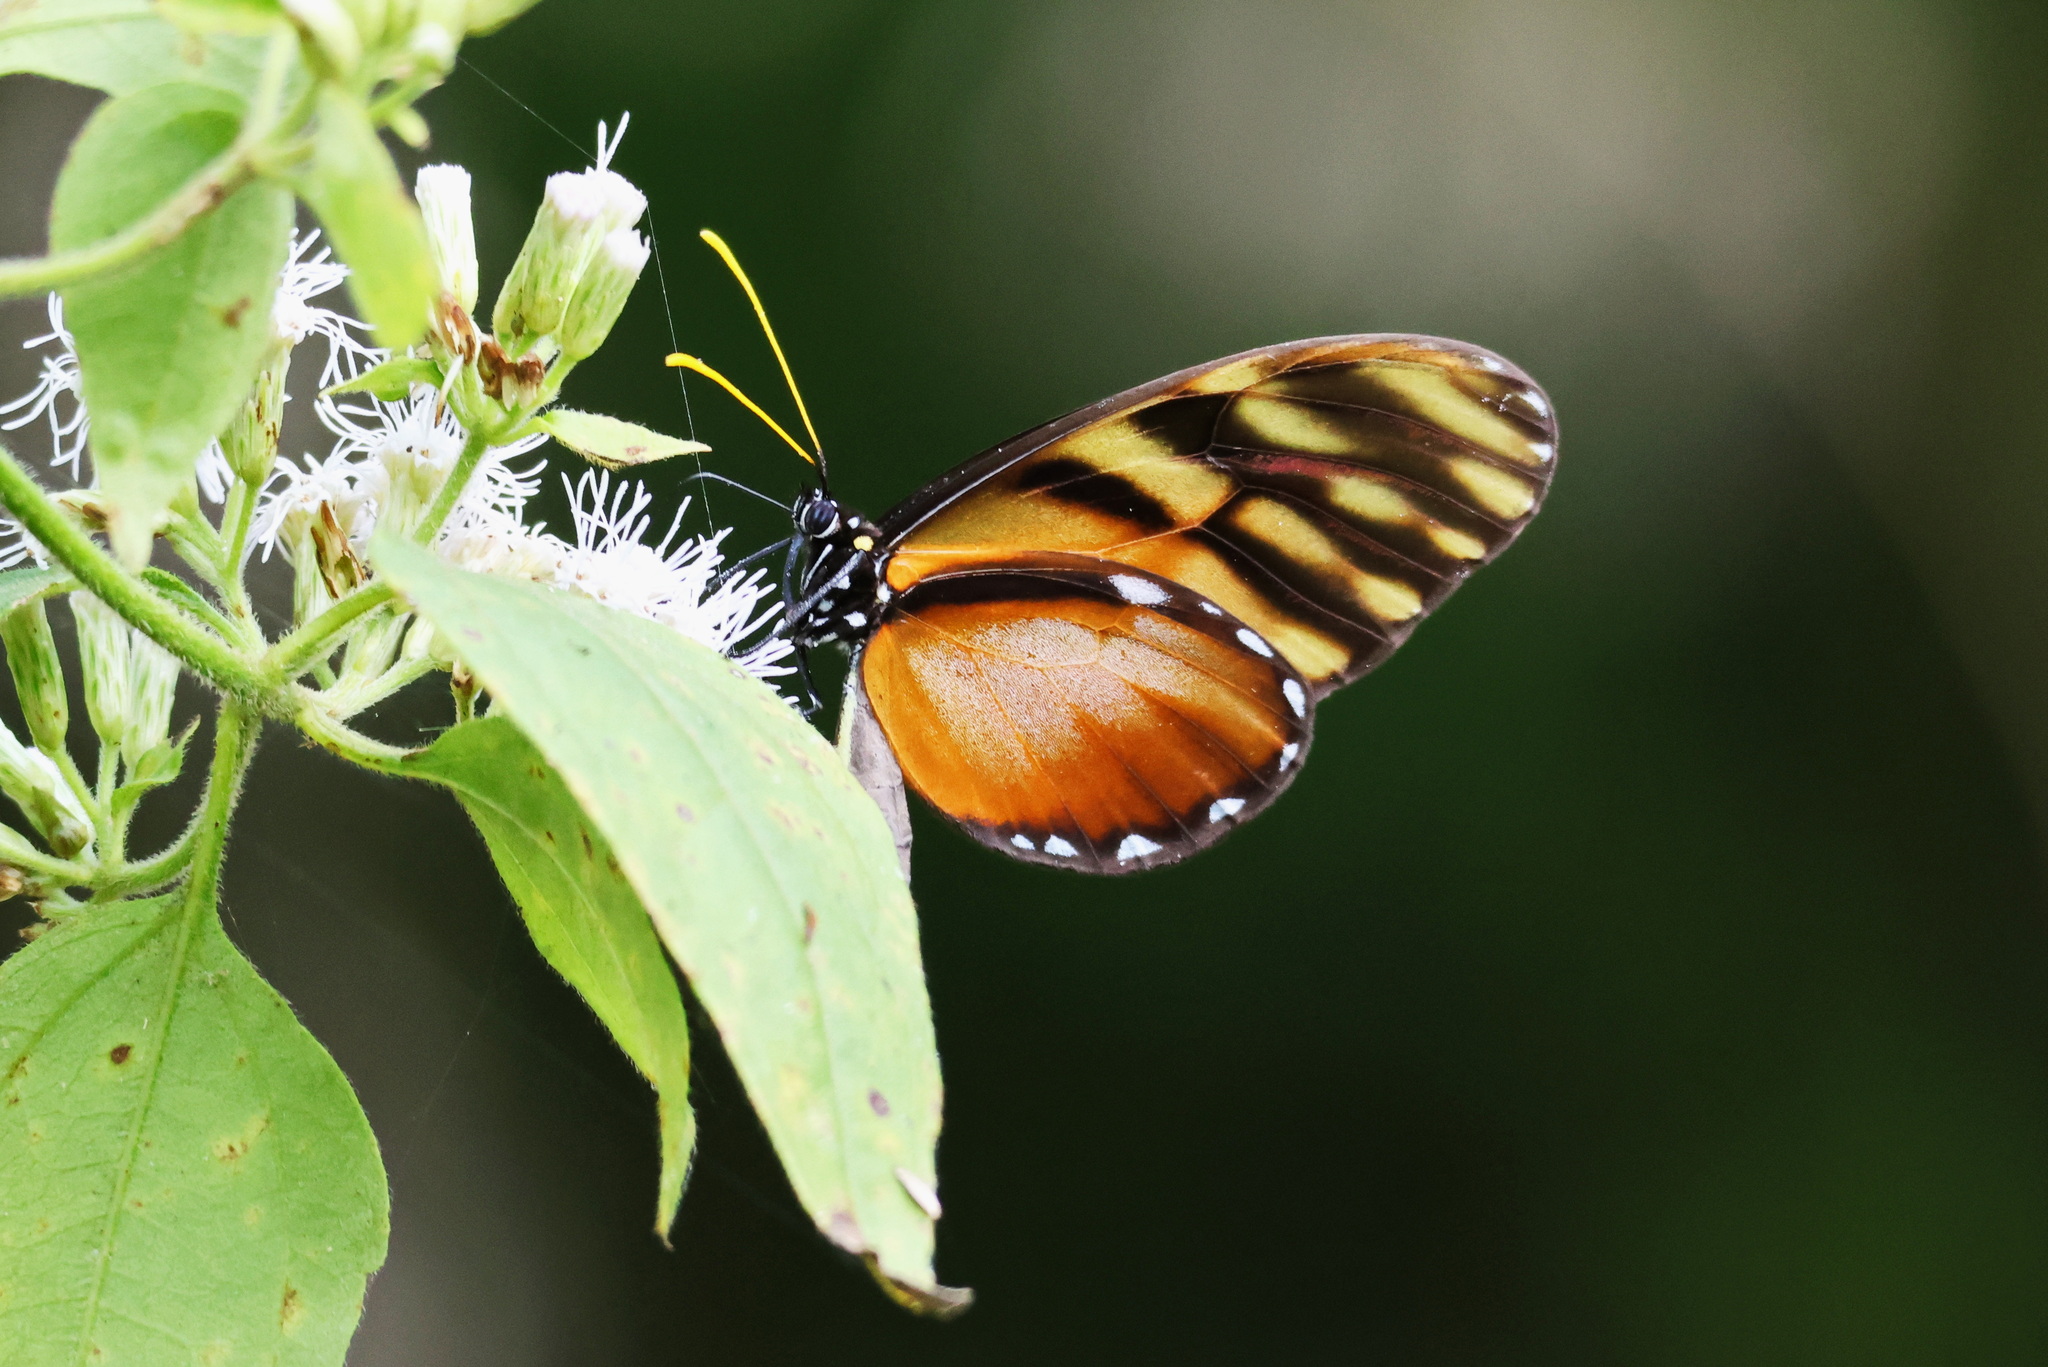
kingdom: Animalia
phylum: Arthropoda
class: Insecta
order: Lepidoptera
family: Nymphalidae
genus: Dircenna
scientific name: Dircenna klugii
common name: Klug’s clearwing
